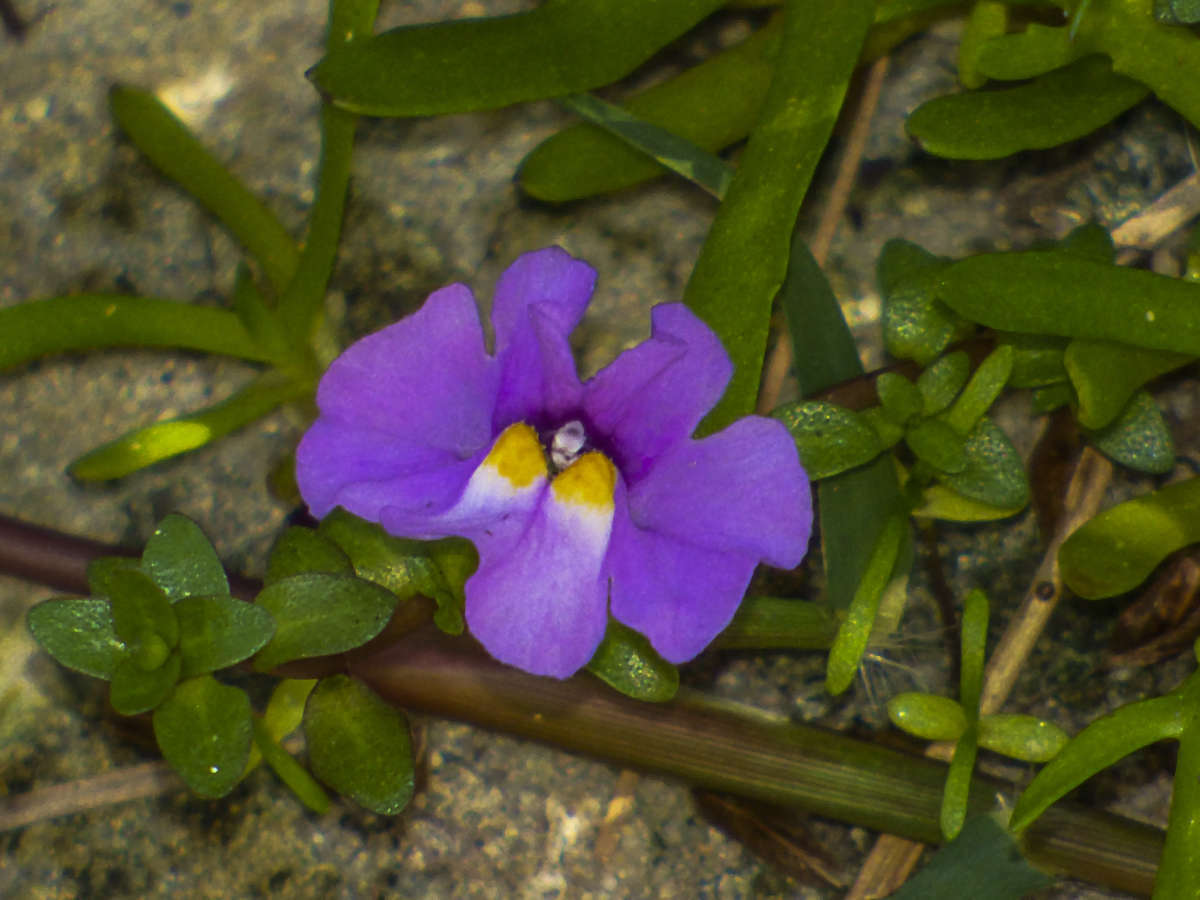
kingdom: Plantae
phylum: Tracheophyta
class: Magnoliopsida
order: Lamiales
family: Phrymaceae
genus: Thyridia
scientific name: Thyridia repens
